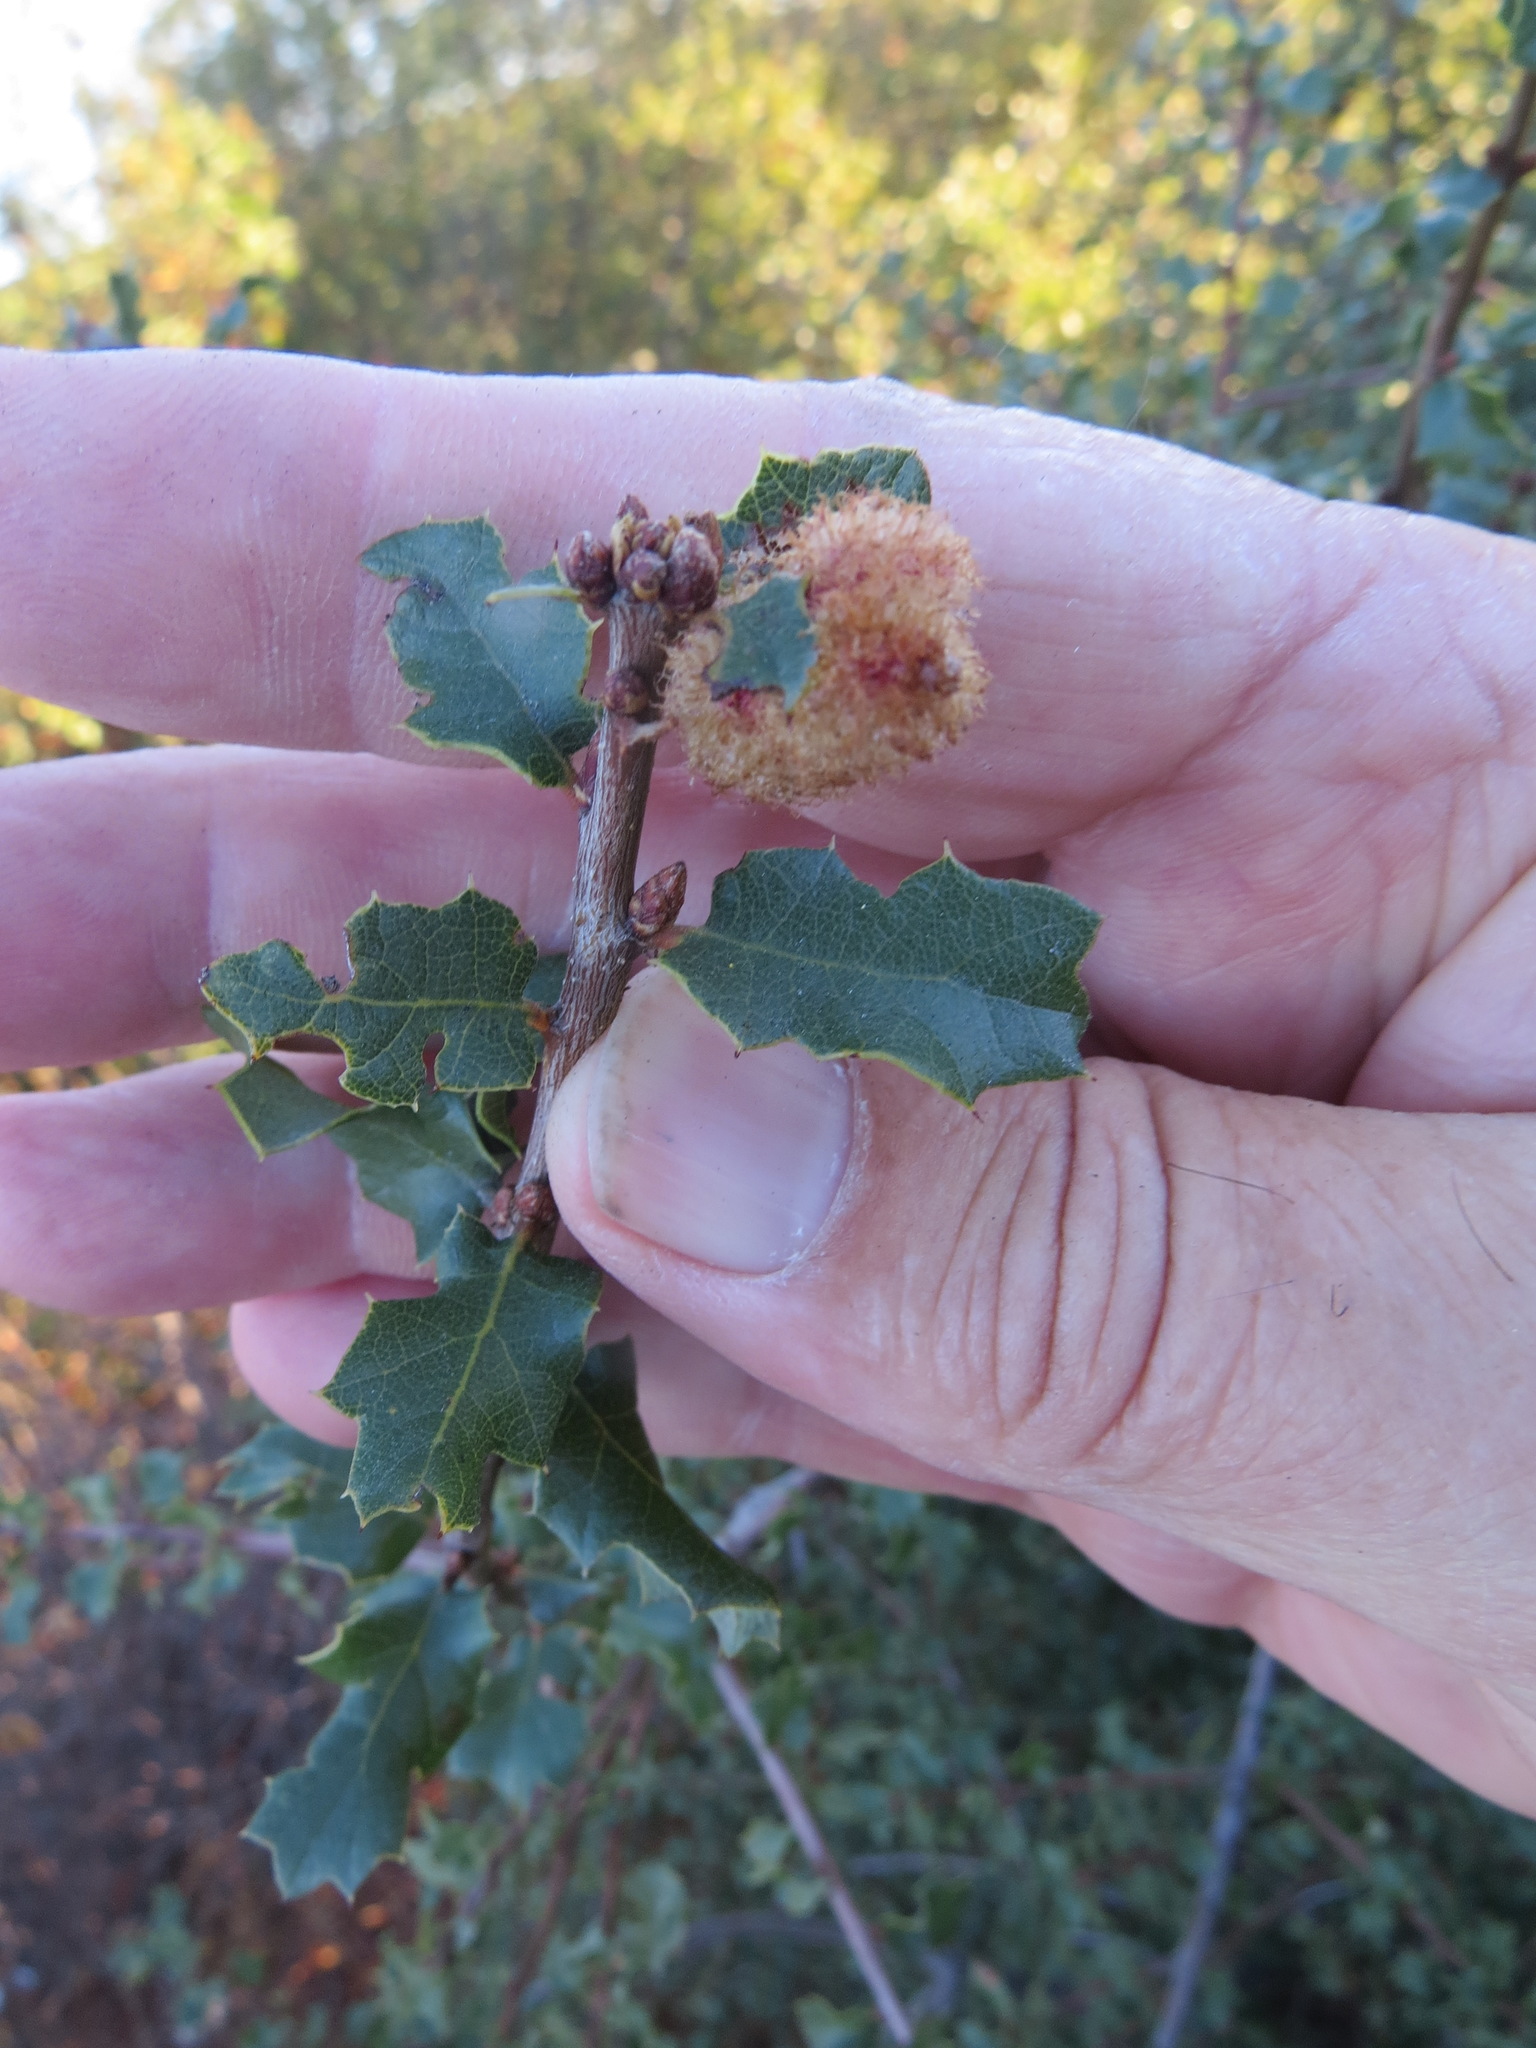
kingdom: Animalia
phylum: Arthropoda
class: Insecta
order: Hymenoptera
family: Cynipidae
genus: Andricus
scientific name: Andricus
